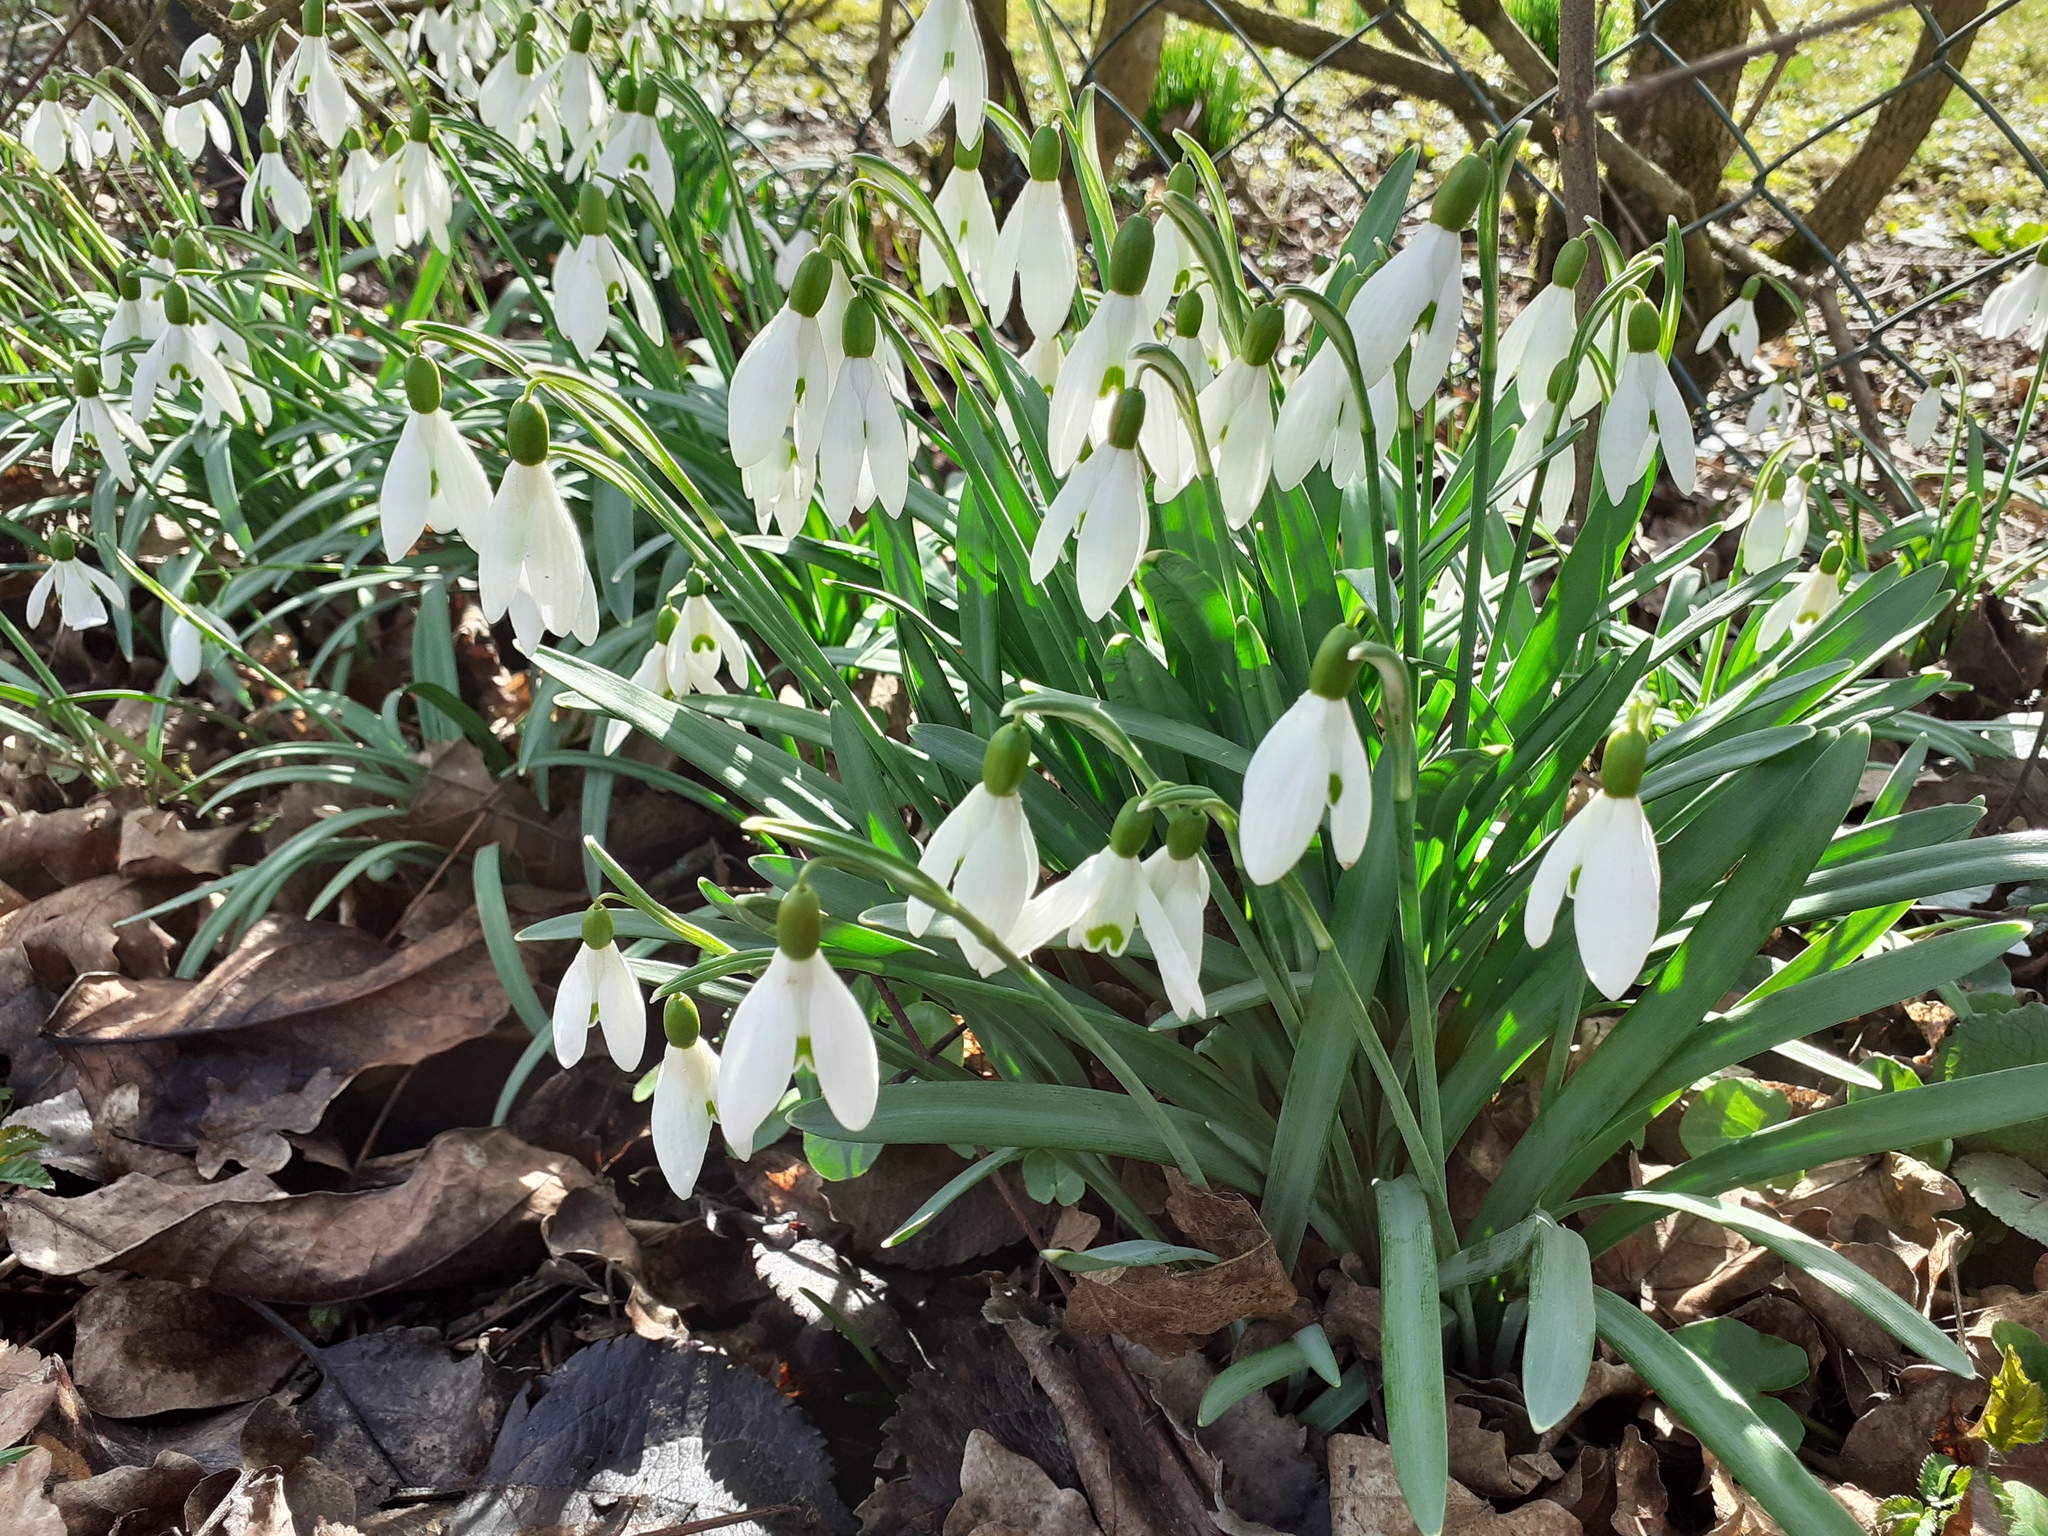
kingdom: Plantae
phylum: Tracheophyta
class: Liliopsida
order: Asparagales
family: Amaryllidaceae
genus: Galanthus
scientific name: Galanthus nivalis
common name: Snowdrop
